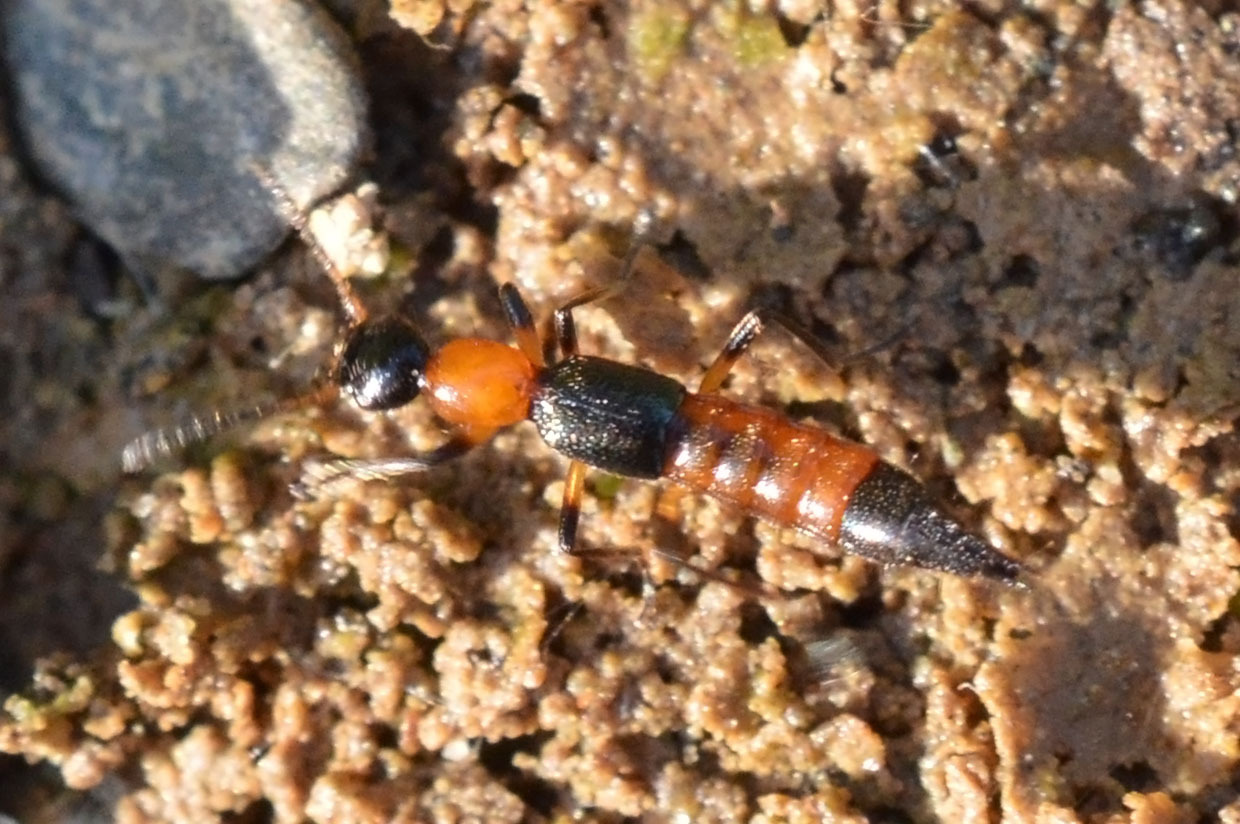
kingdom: Animalia
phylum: Arthropoda
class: Insecta
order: Coleoptera
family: Staphylinidae
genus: Paederus
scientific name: Paederus limnophilus
